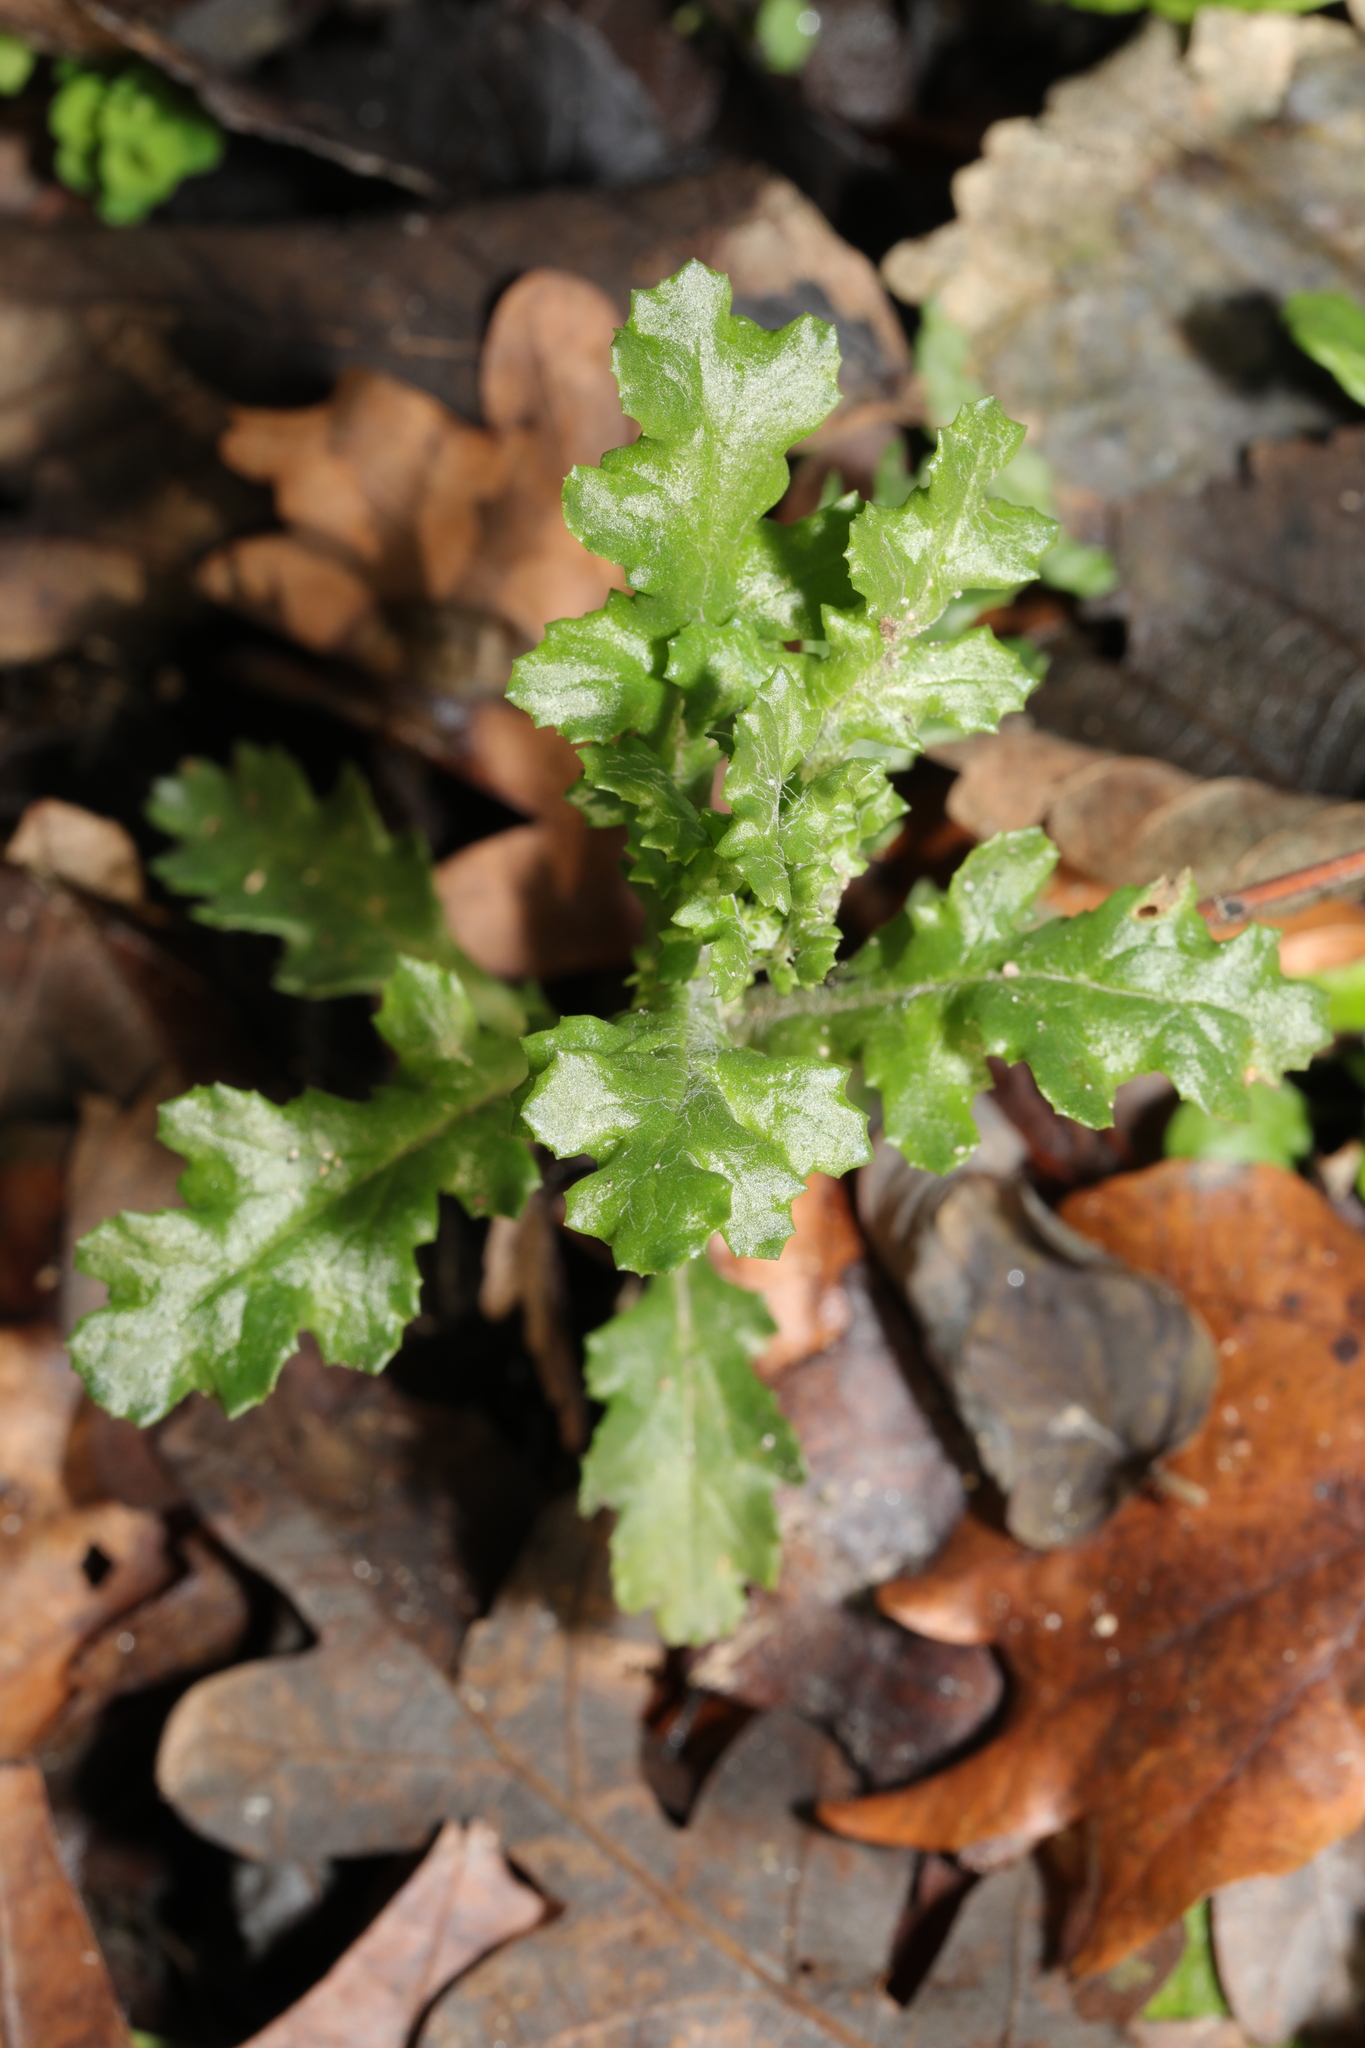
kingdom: Plantae
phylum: Tracheophyta
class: Magnoliopsida
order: Asterales
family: Asteraceae
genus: Senecio
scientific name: Senecio vulgaris
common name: Old-man-in-the-spring
